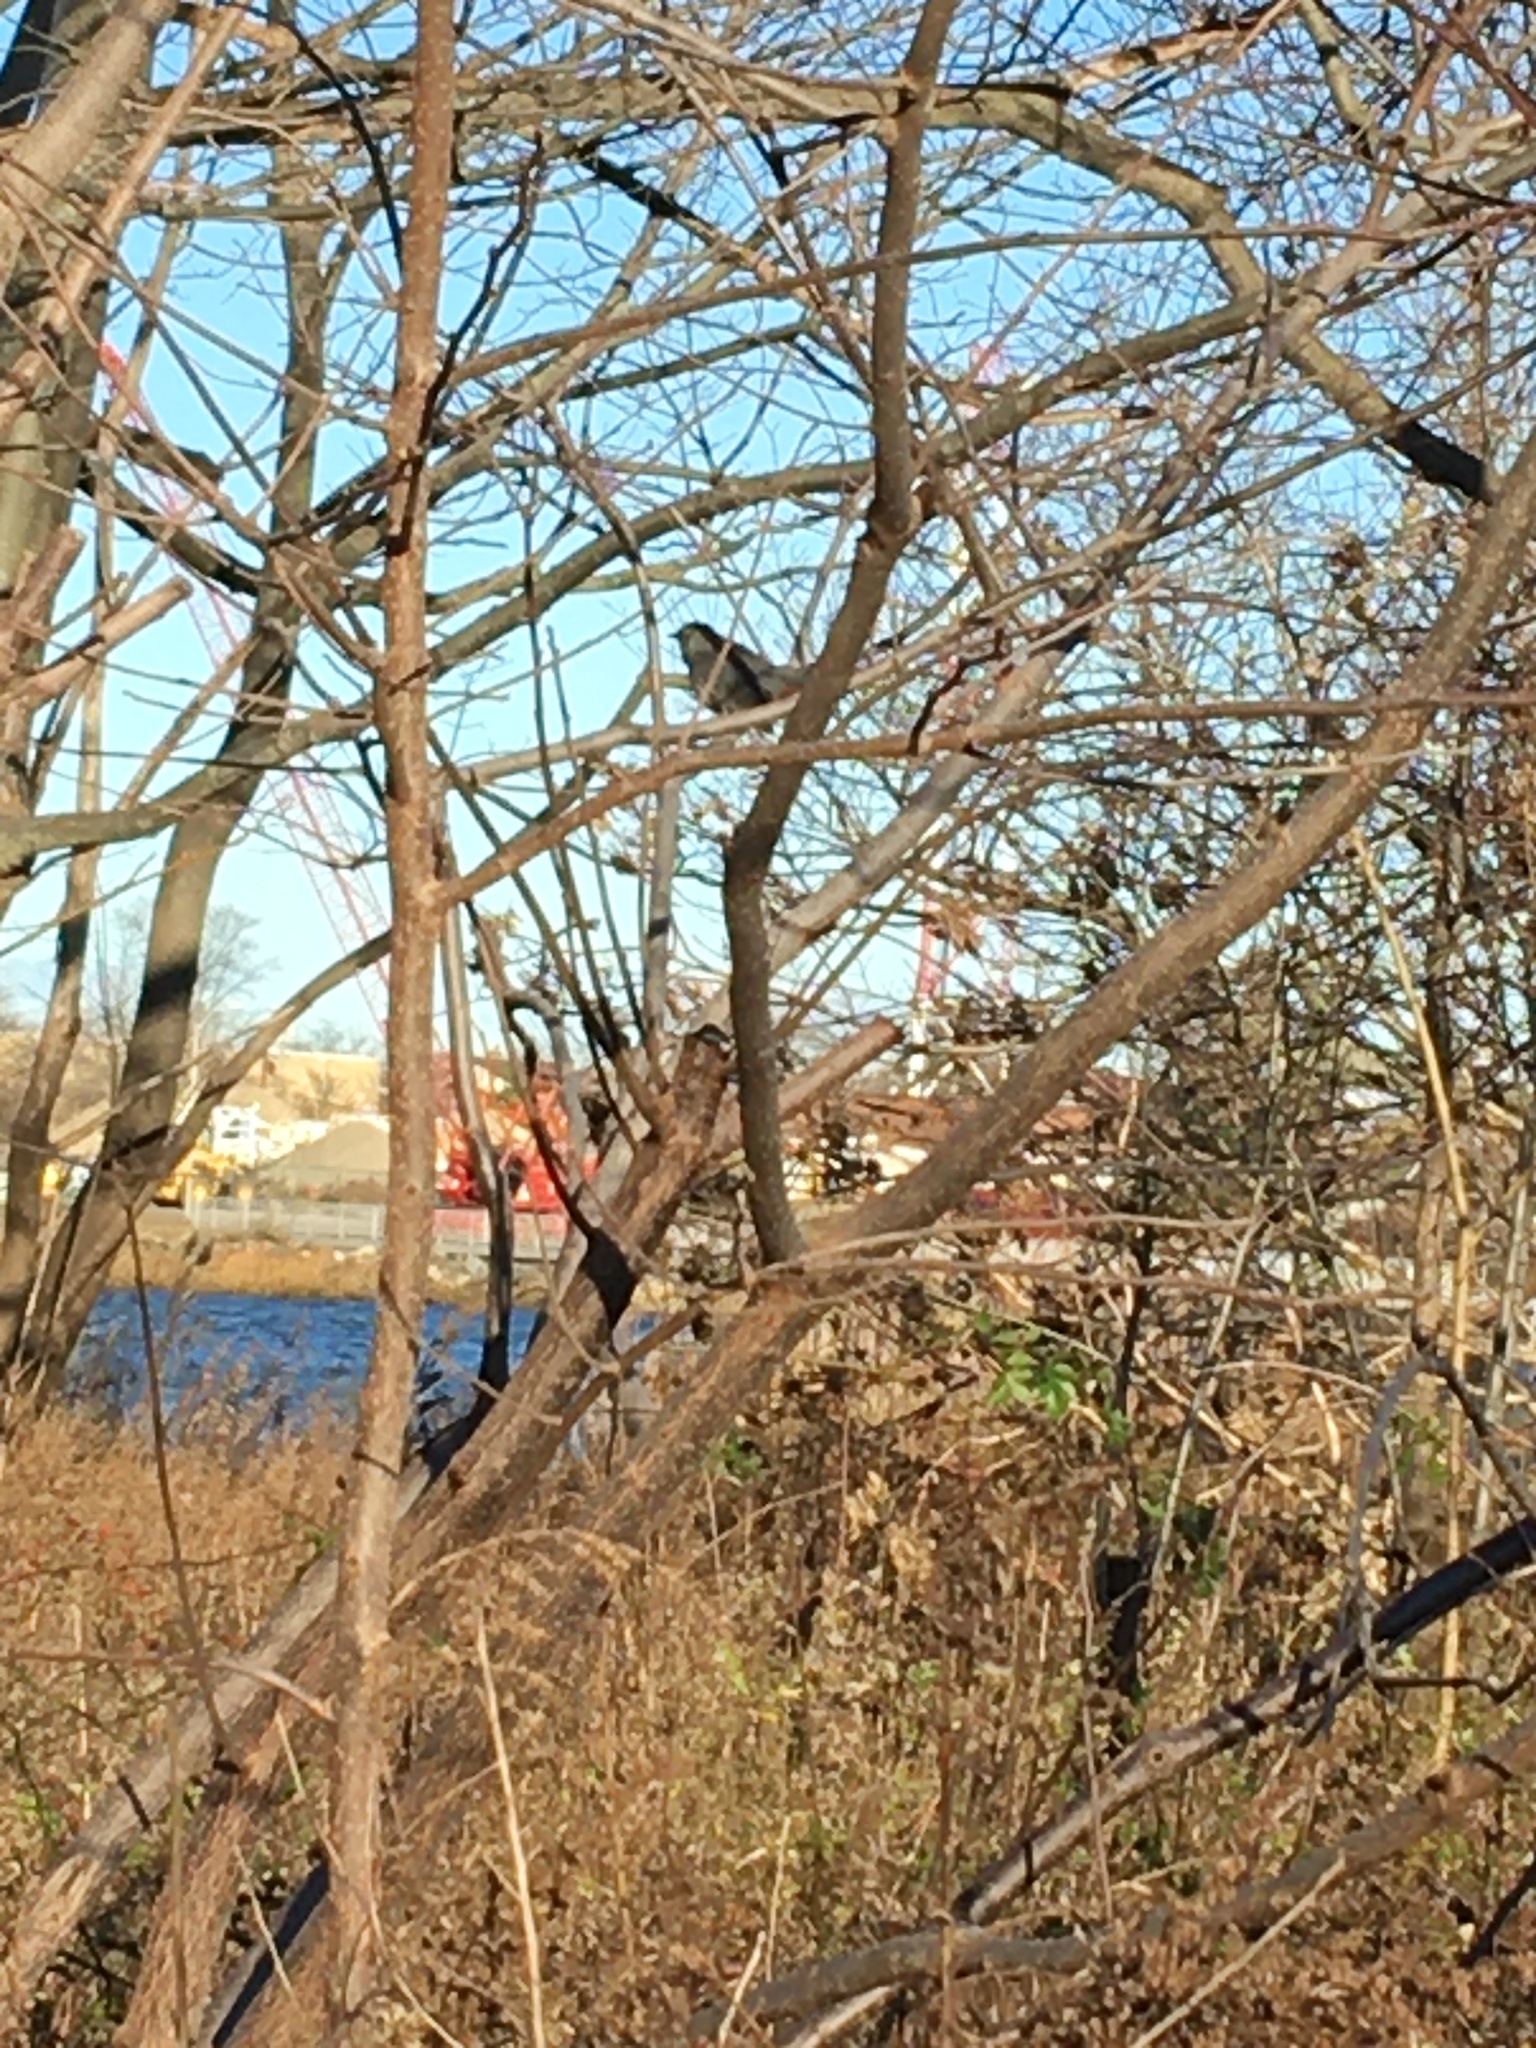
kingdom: Animalia
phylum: Chordata
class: Aves
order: Passeriformes
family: Mimidae
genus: Dumetella
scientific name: Dumetella carolinensis
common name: Gray catbird
